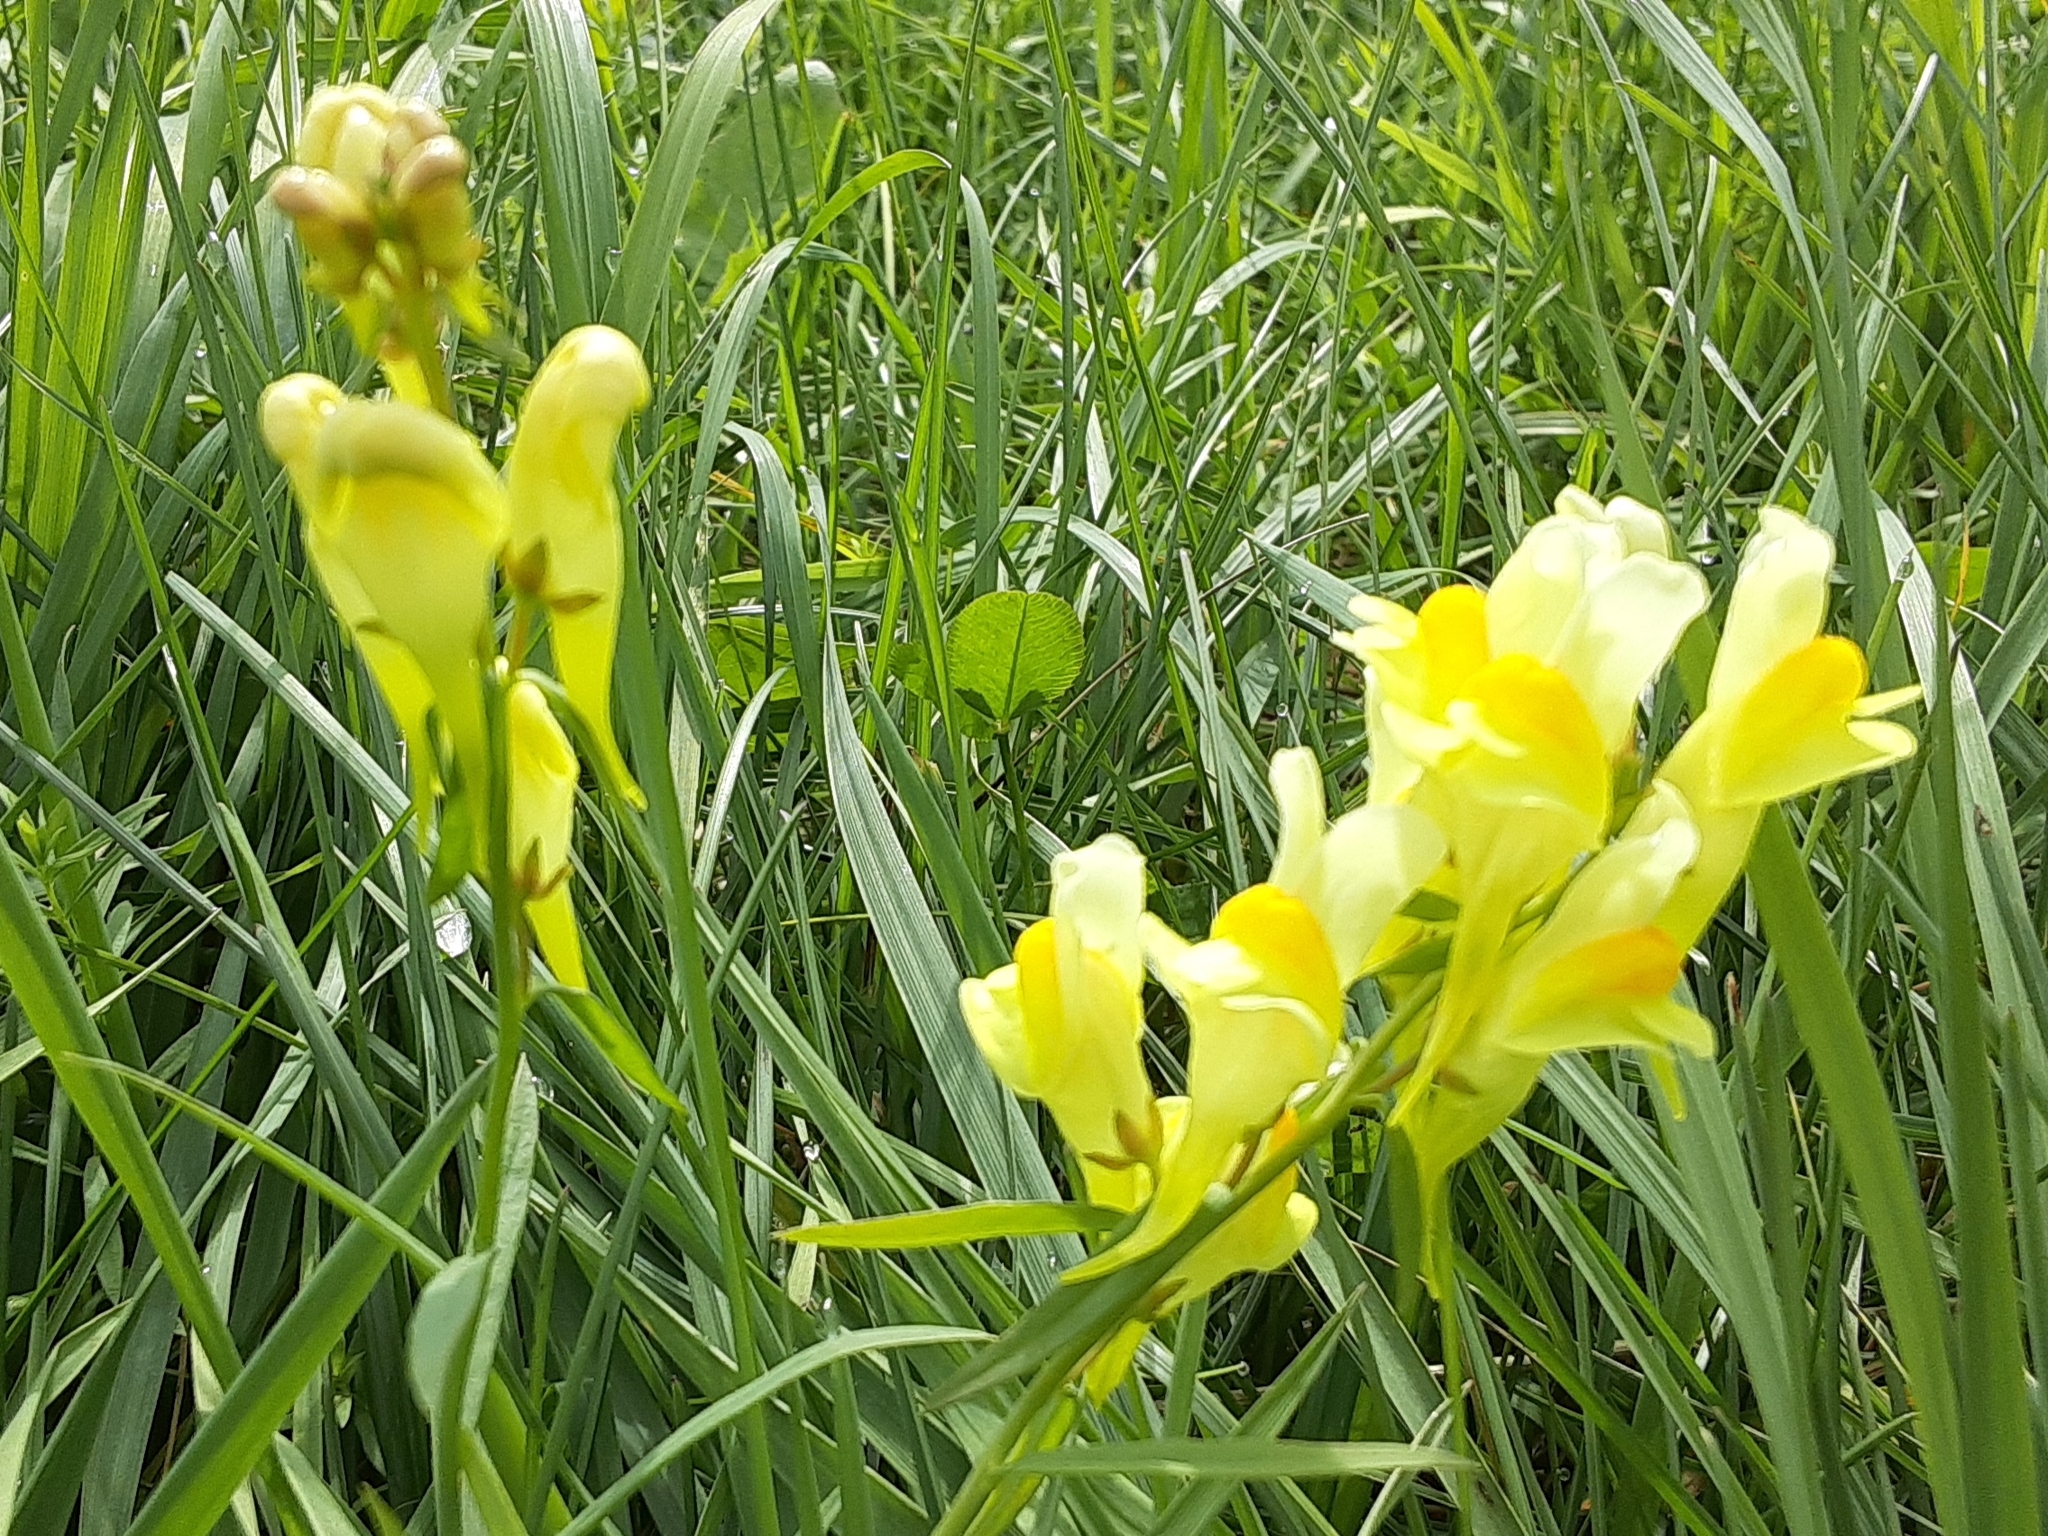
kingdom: Plantae
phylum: Tracheophyta
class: Magnoliopsida
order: Lamiales
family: Plantaginaceae
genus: Linaria
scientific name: Linaria vulgaris
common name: Butter and eggs
